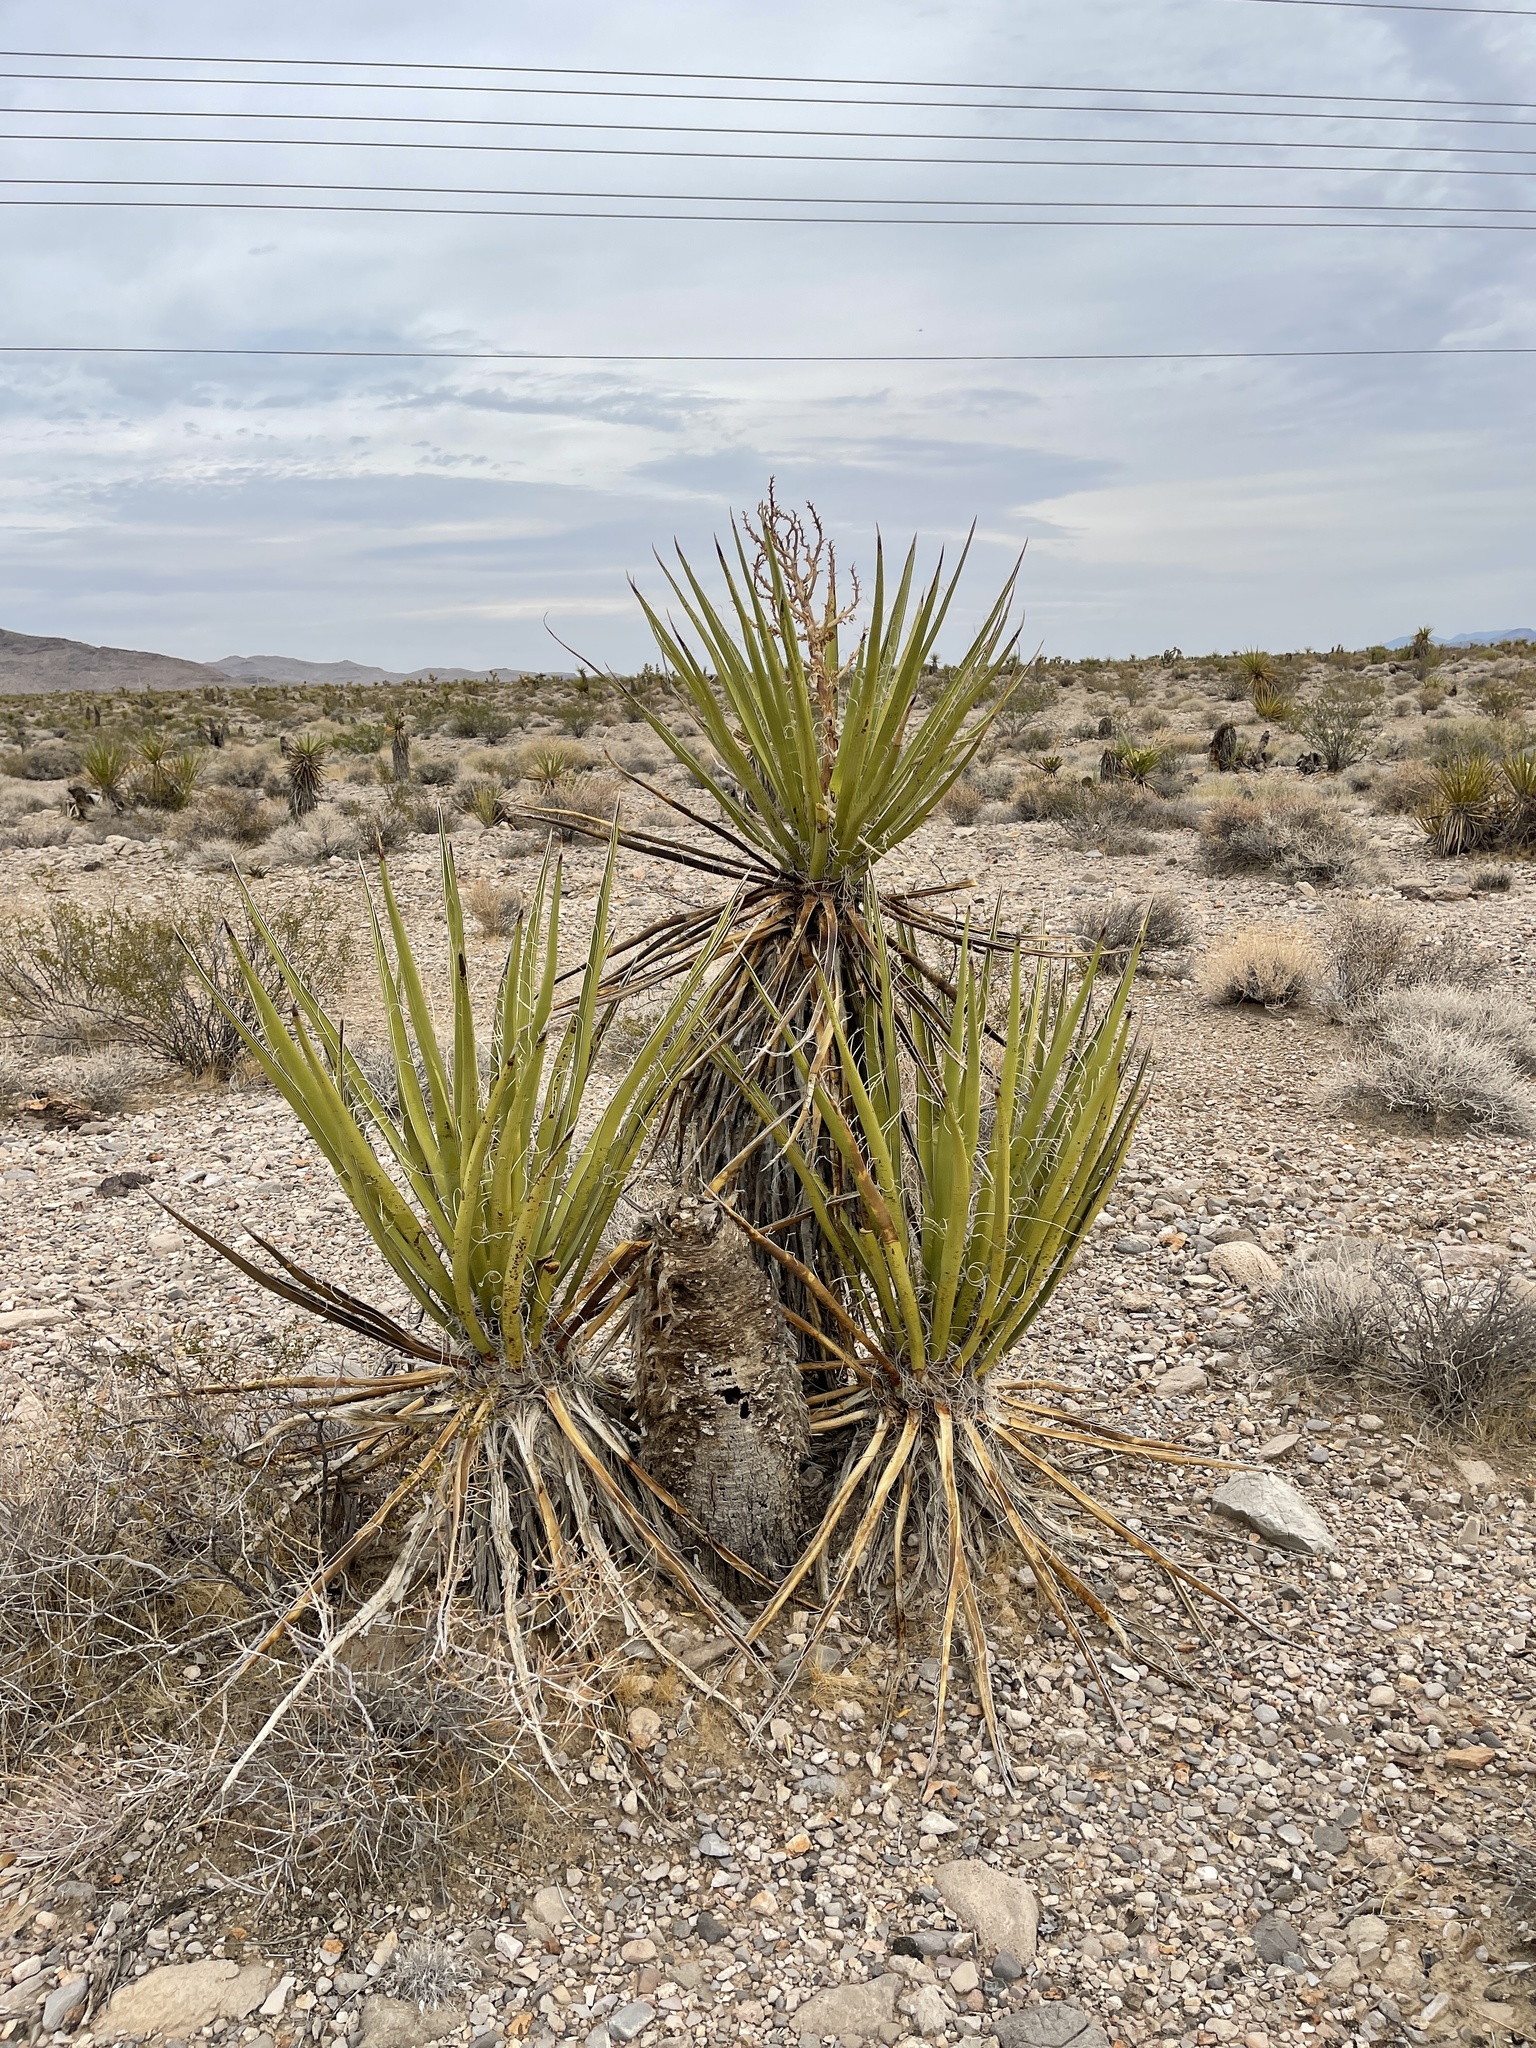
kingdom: Plantae
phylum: Tracheophyta
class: Liliopsida
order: Asparagales
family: Asparagaceae
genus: Yucca
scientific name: Yucca schidigera
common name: Mojave yucca
